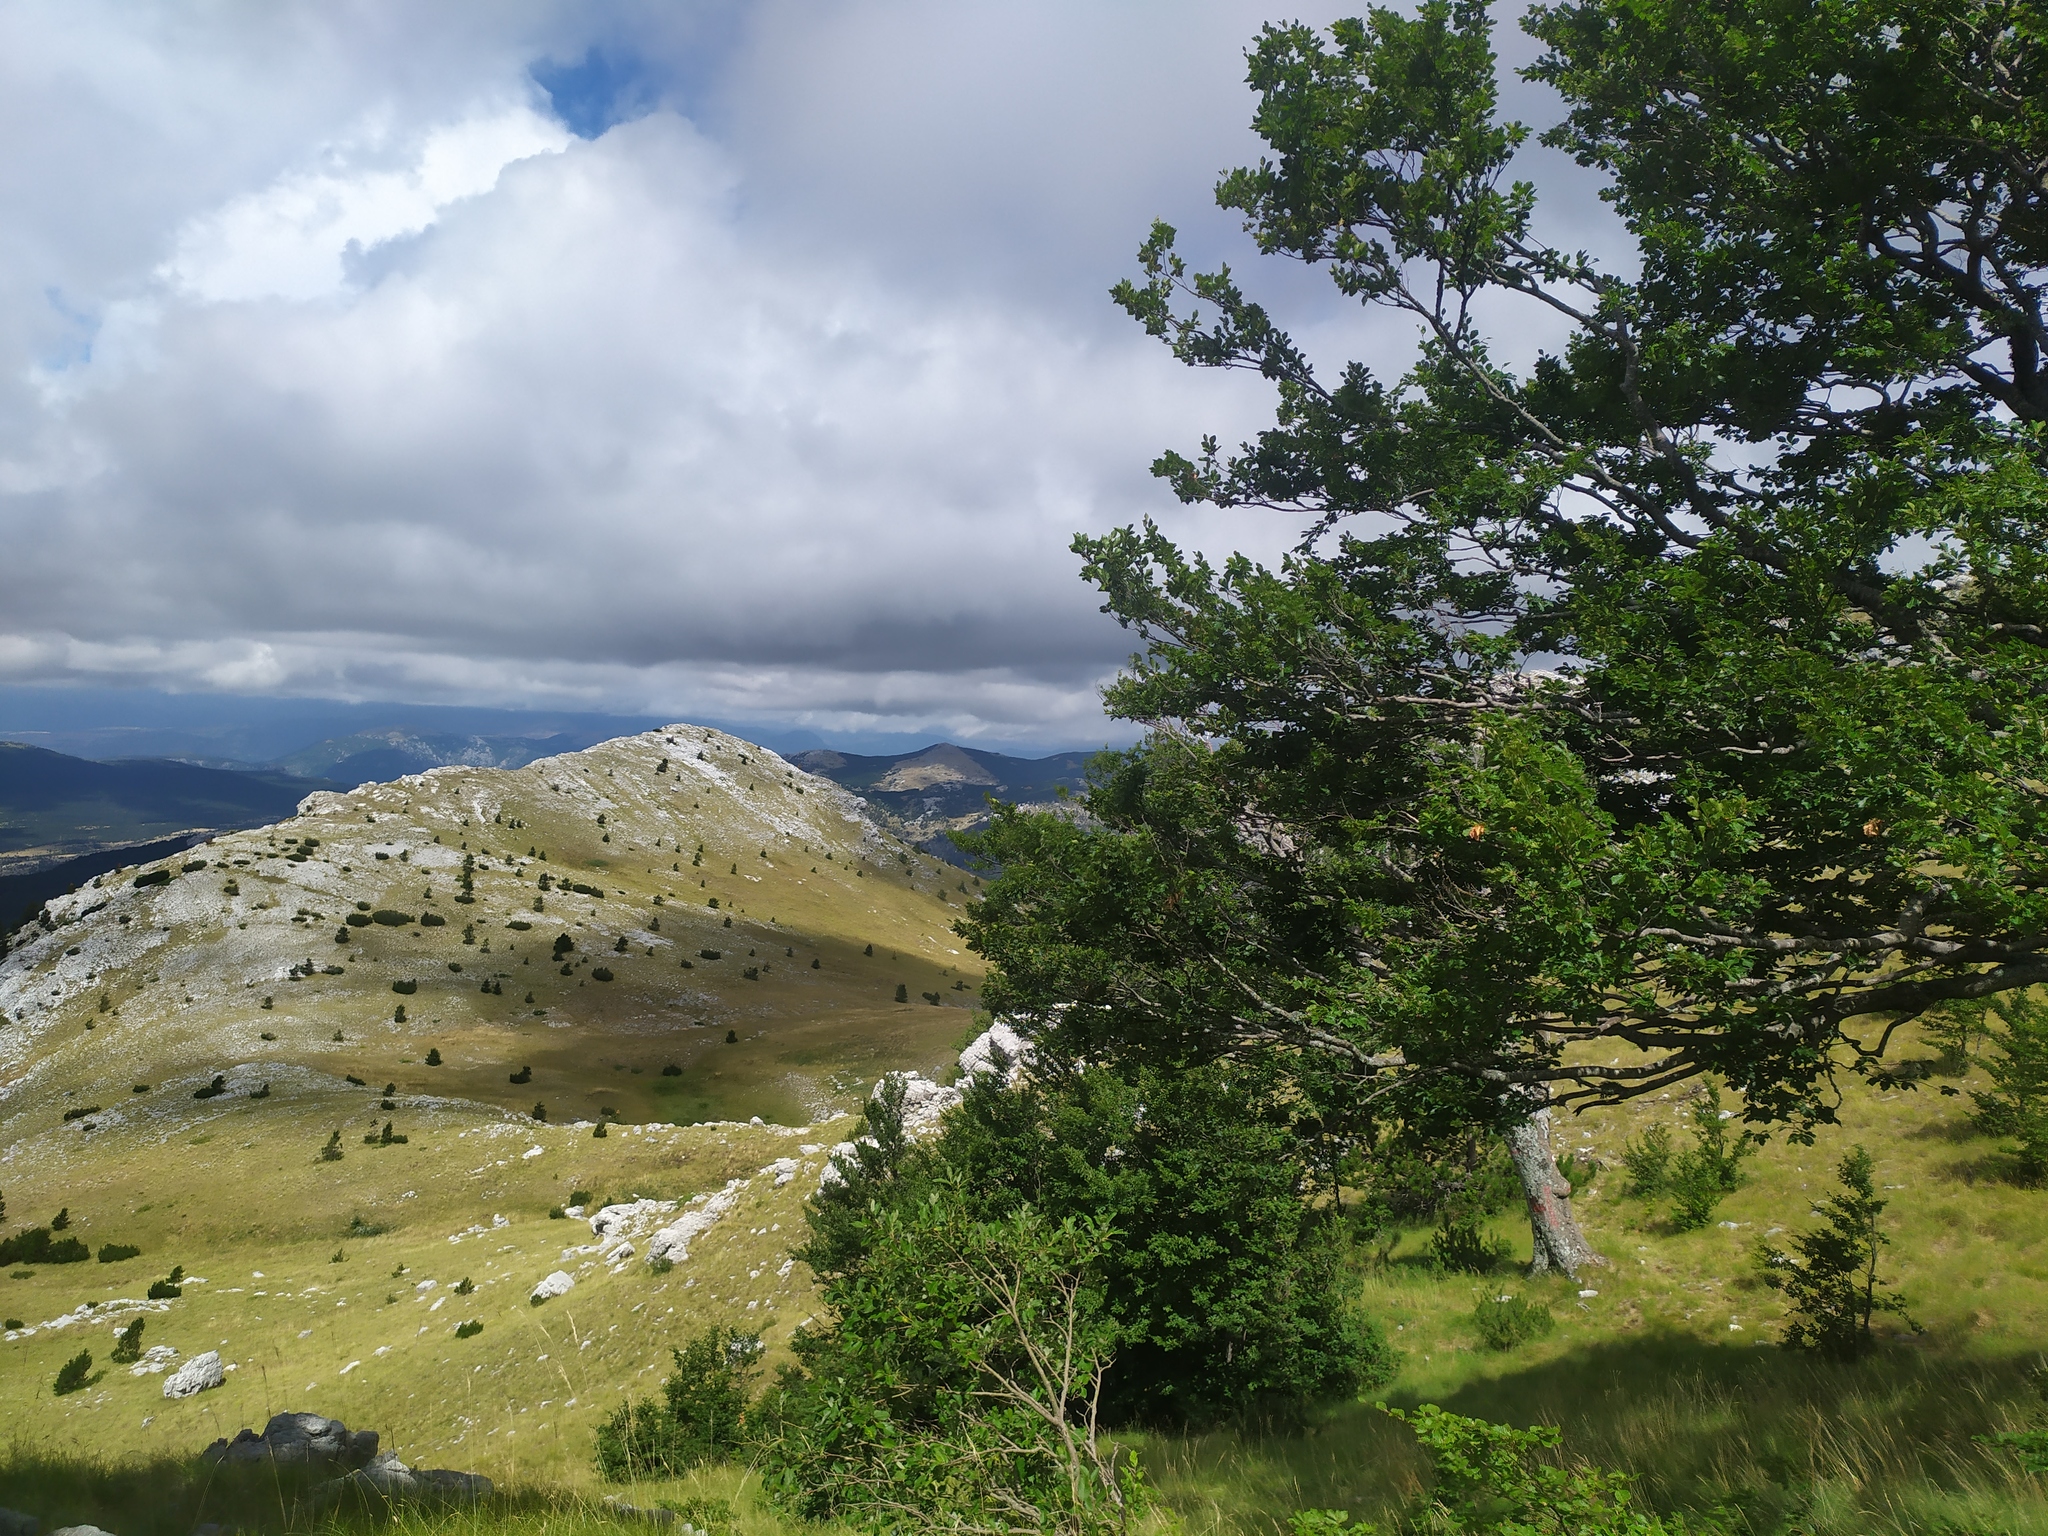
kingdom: Plantae
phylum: Tracheophyta
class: Magnoliopsida
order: Fagales
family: Fagaceae
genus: Fagus
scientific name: Fagus sylvatica
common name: Beech
